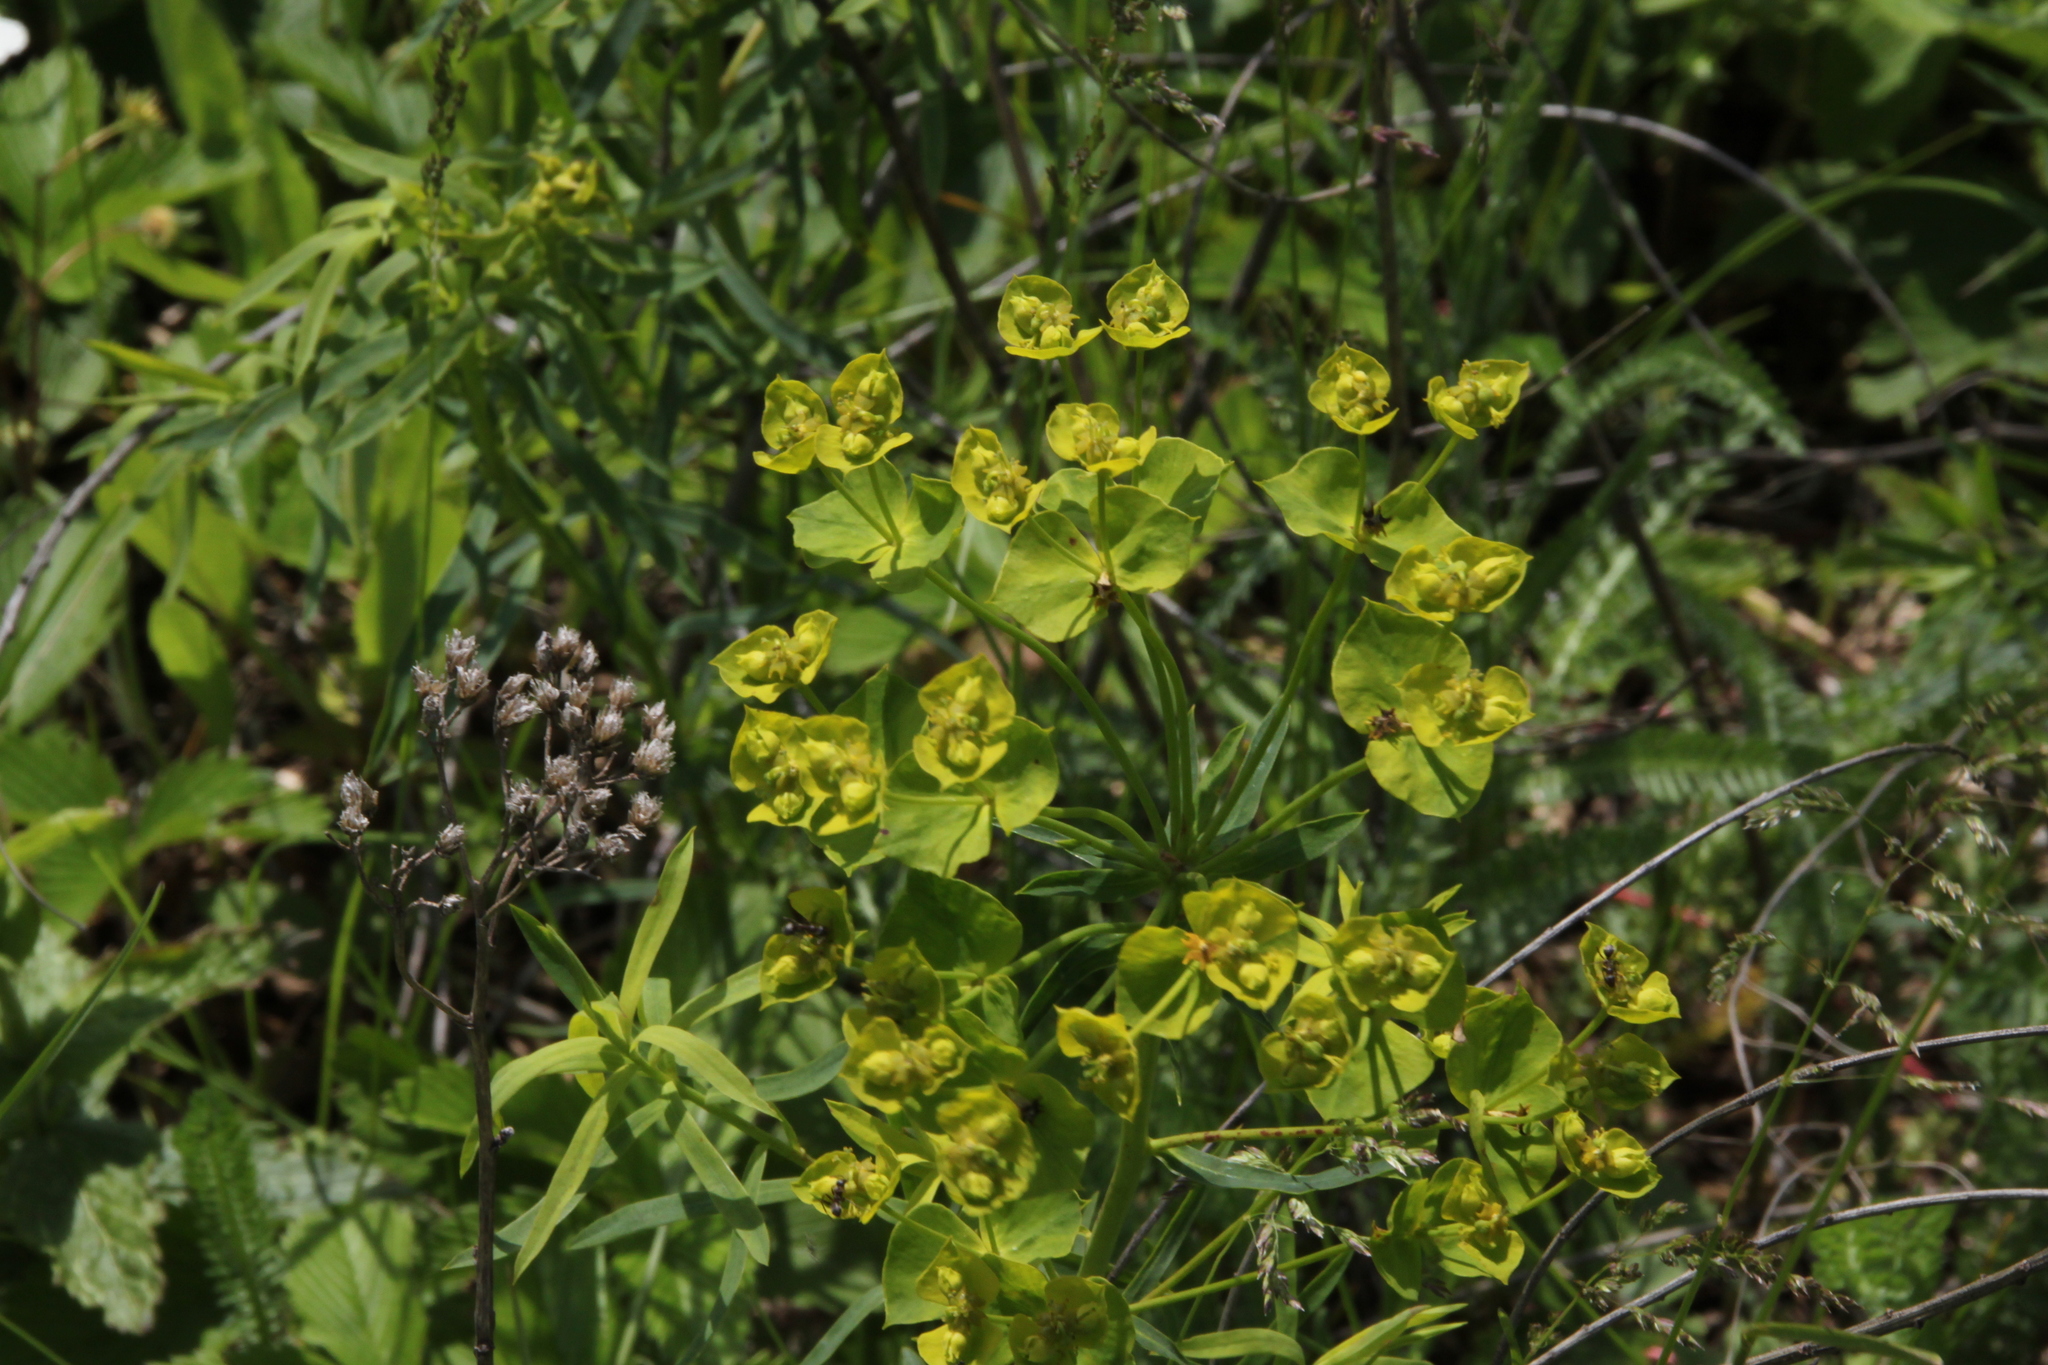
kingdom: Plantae
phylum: Tracheophyta
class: Magnoliopsida
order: Malpighiales
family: Euphorbiaceae
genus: Euphorbia
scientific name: Euphorbia virgata
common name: Leafy spurge
